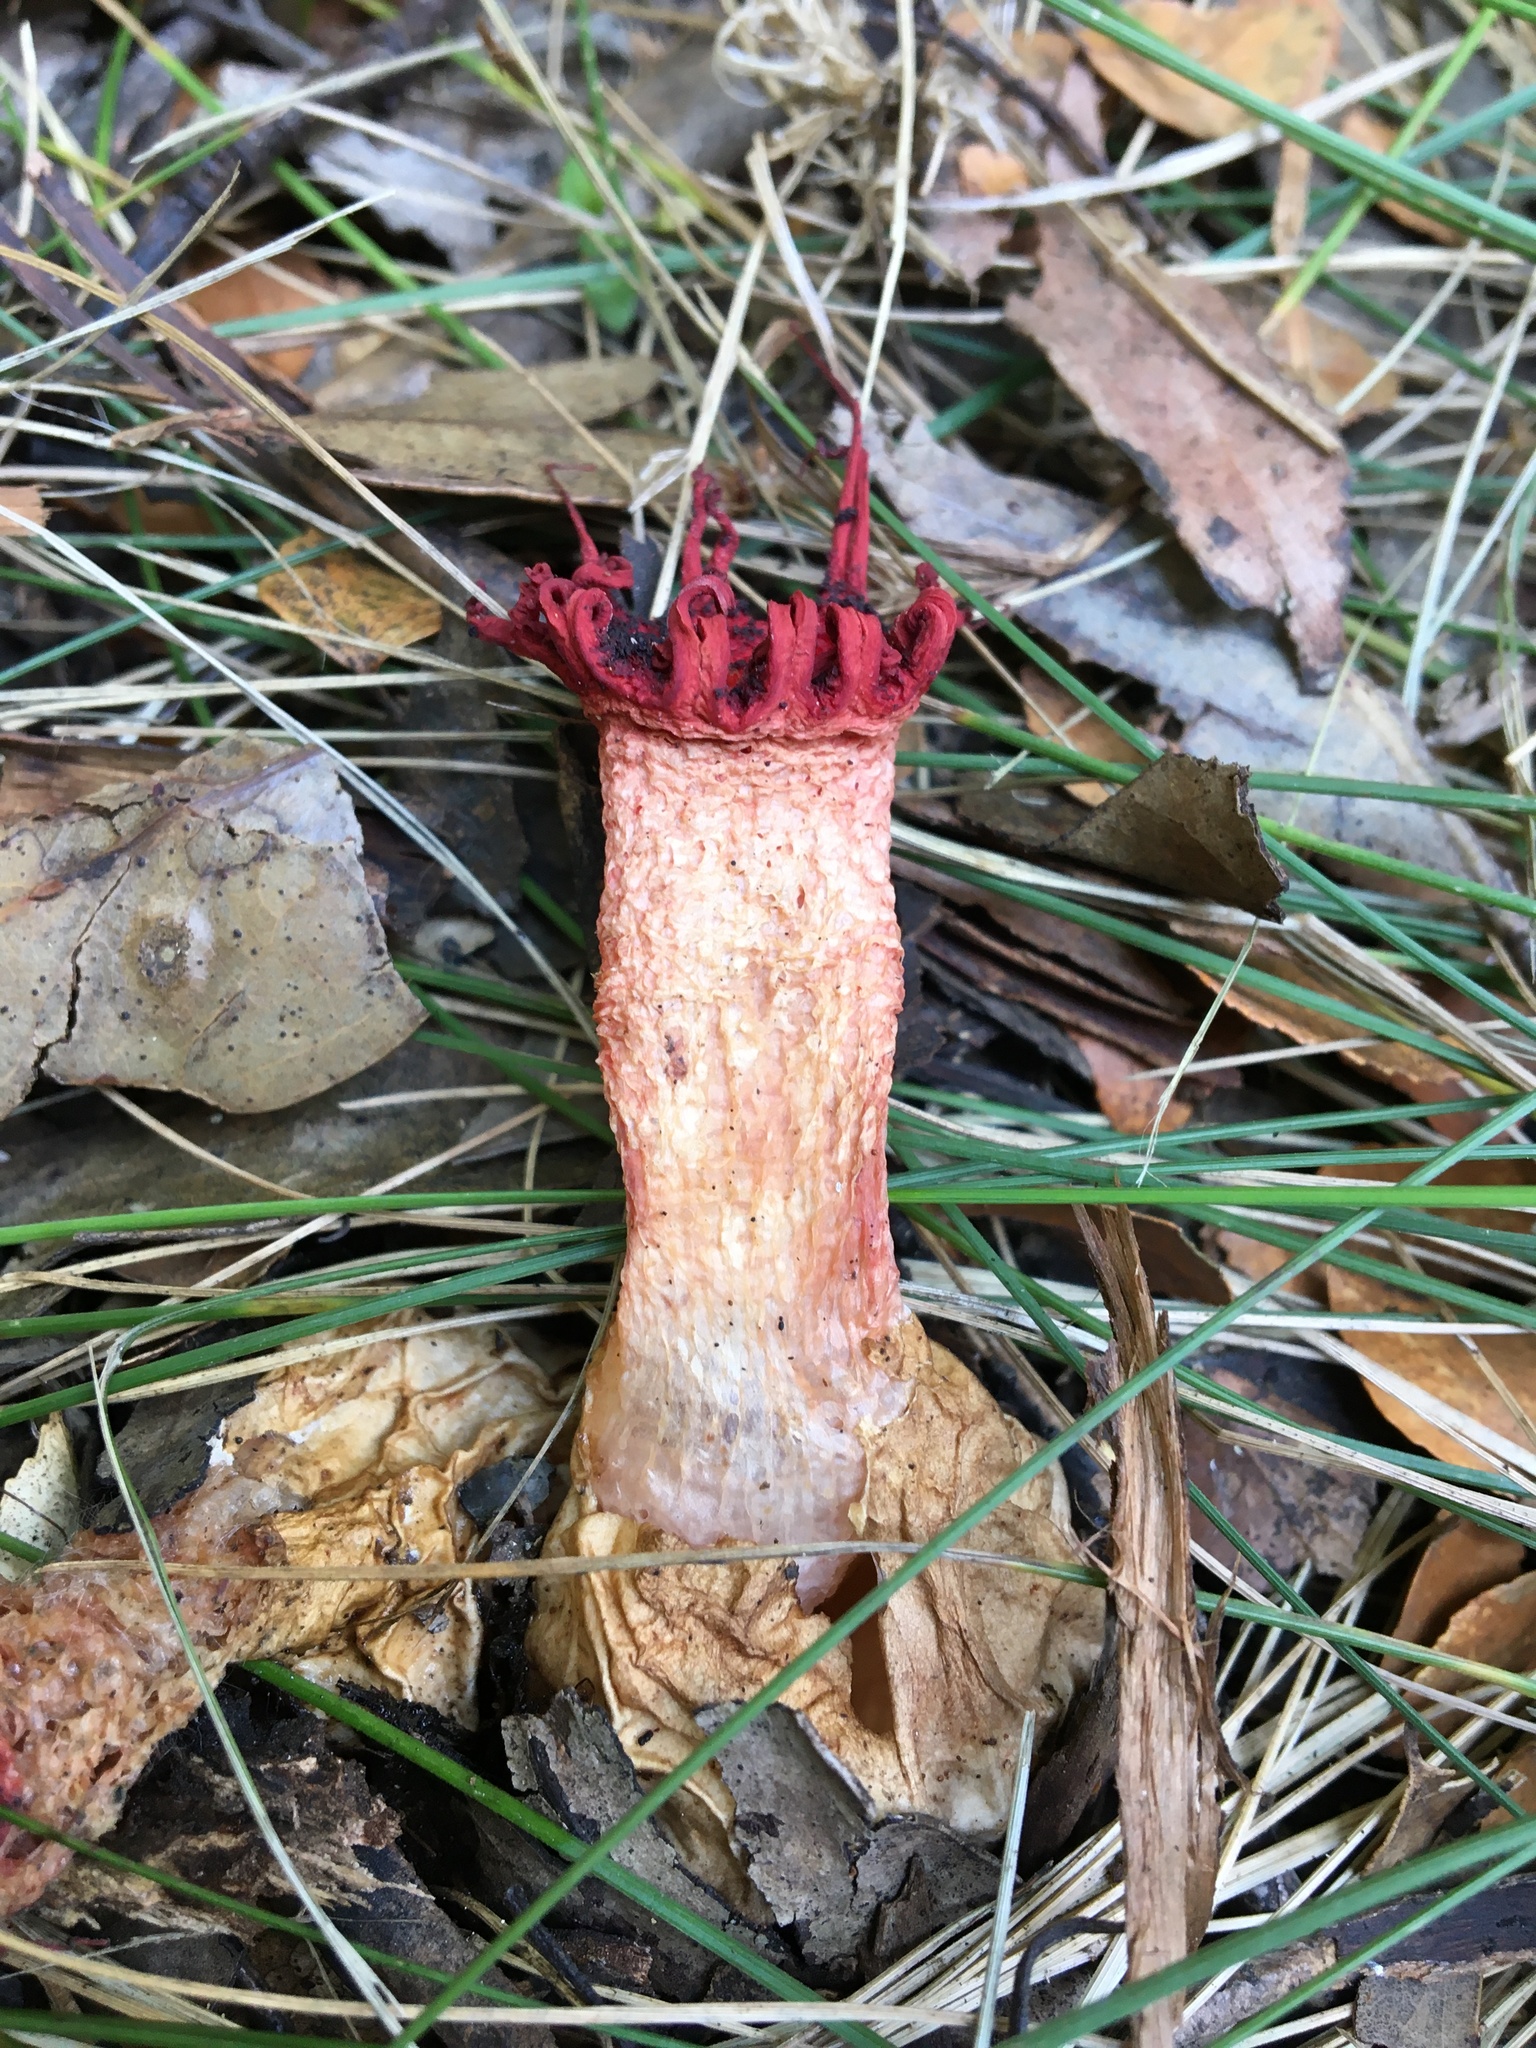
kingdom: Fungi
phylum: Basidiomycota
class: Agaricomycetes
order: Phallales
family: Phallaceae
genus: Aseroe
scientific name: Aseroe rubra
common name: Starfish fungus
